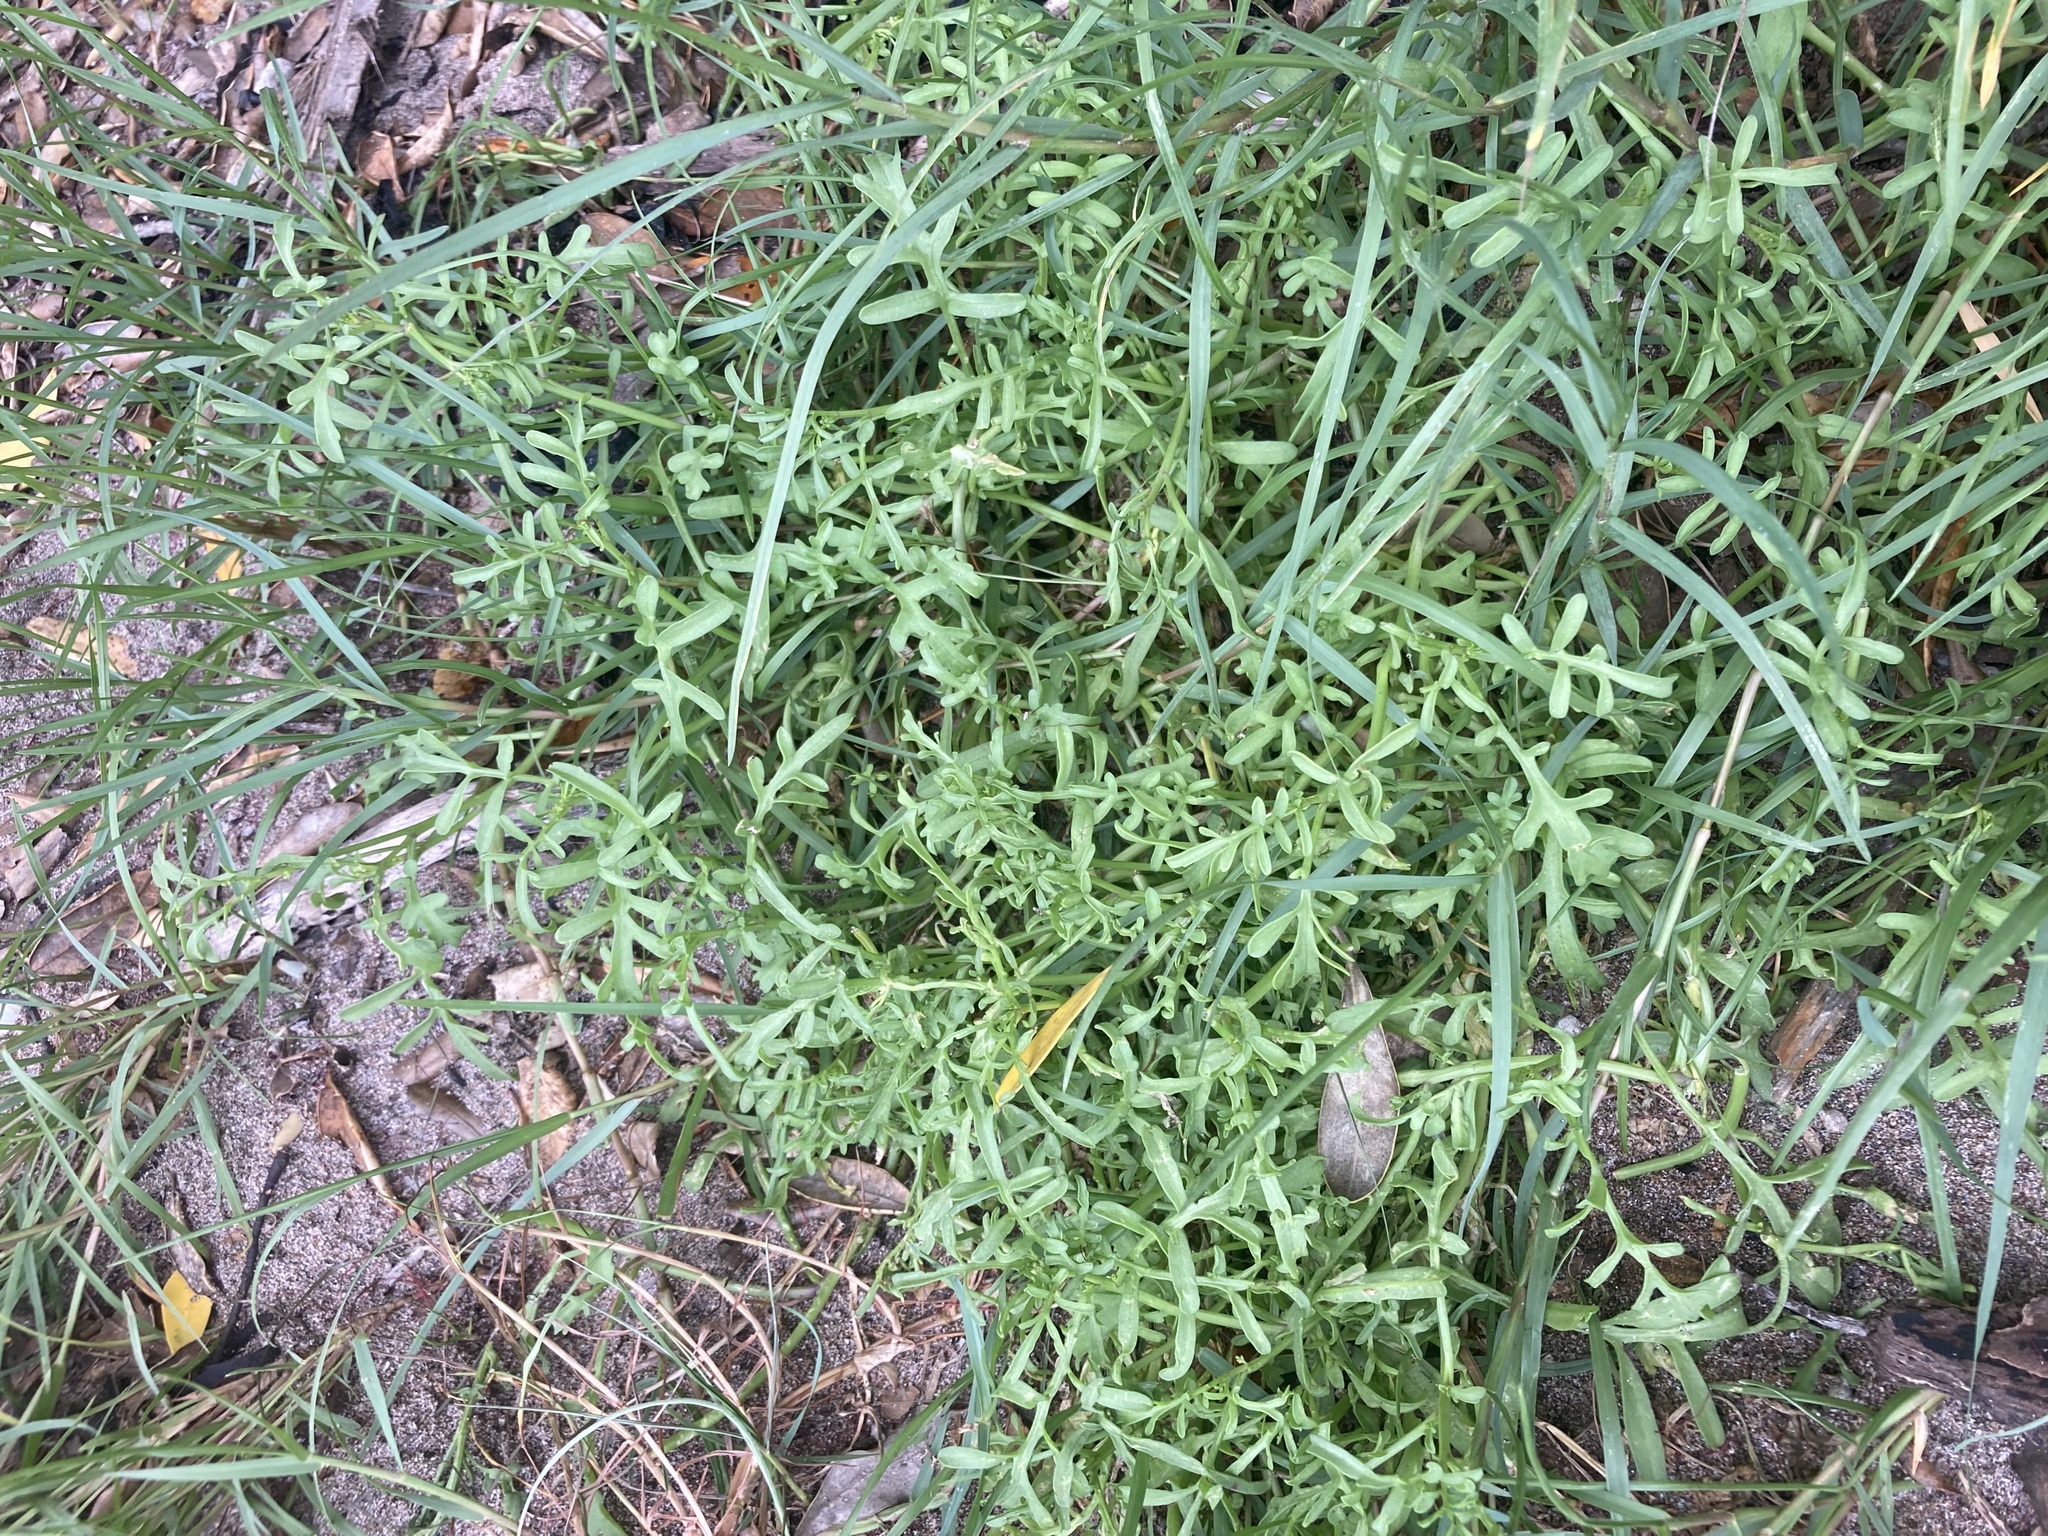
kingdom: Plantae
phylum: Tracheophyta
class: Magnoliopsida
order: Brassicales
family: Brassicaceae
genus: Cakile
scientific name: Cakile maritima
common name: Sea rocket
